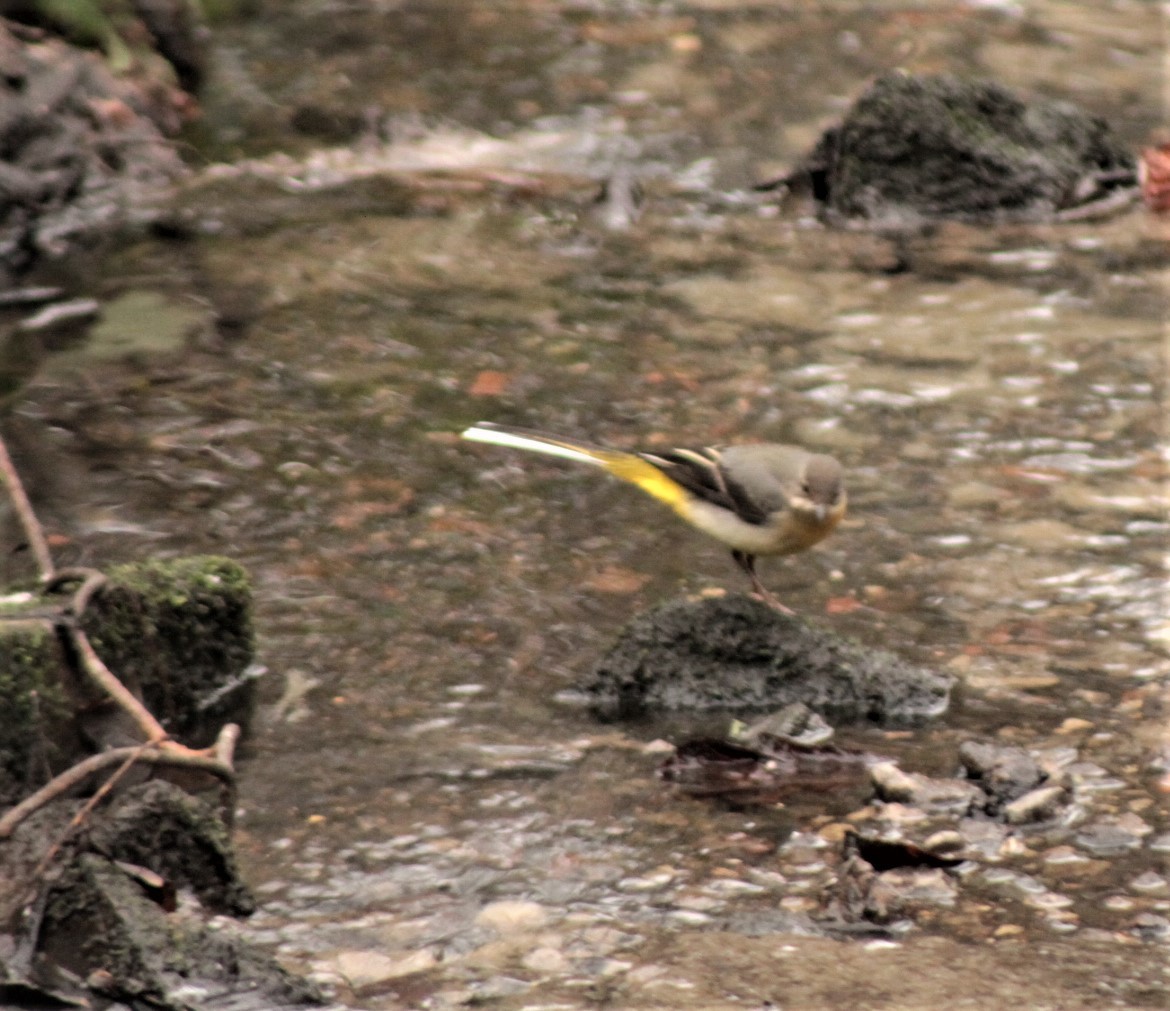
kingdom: Animalia
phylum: Chordata
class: Aves
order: Passeriformes
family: Motacillidae
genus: Motacilla
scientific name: Motacilla cinerea
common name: Grey wagtail
